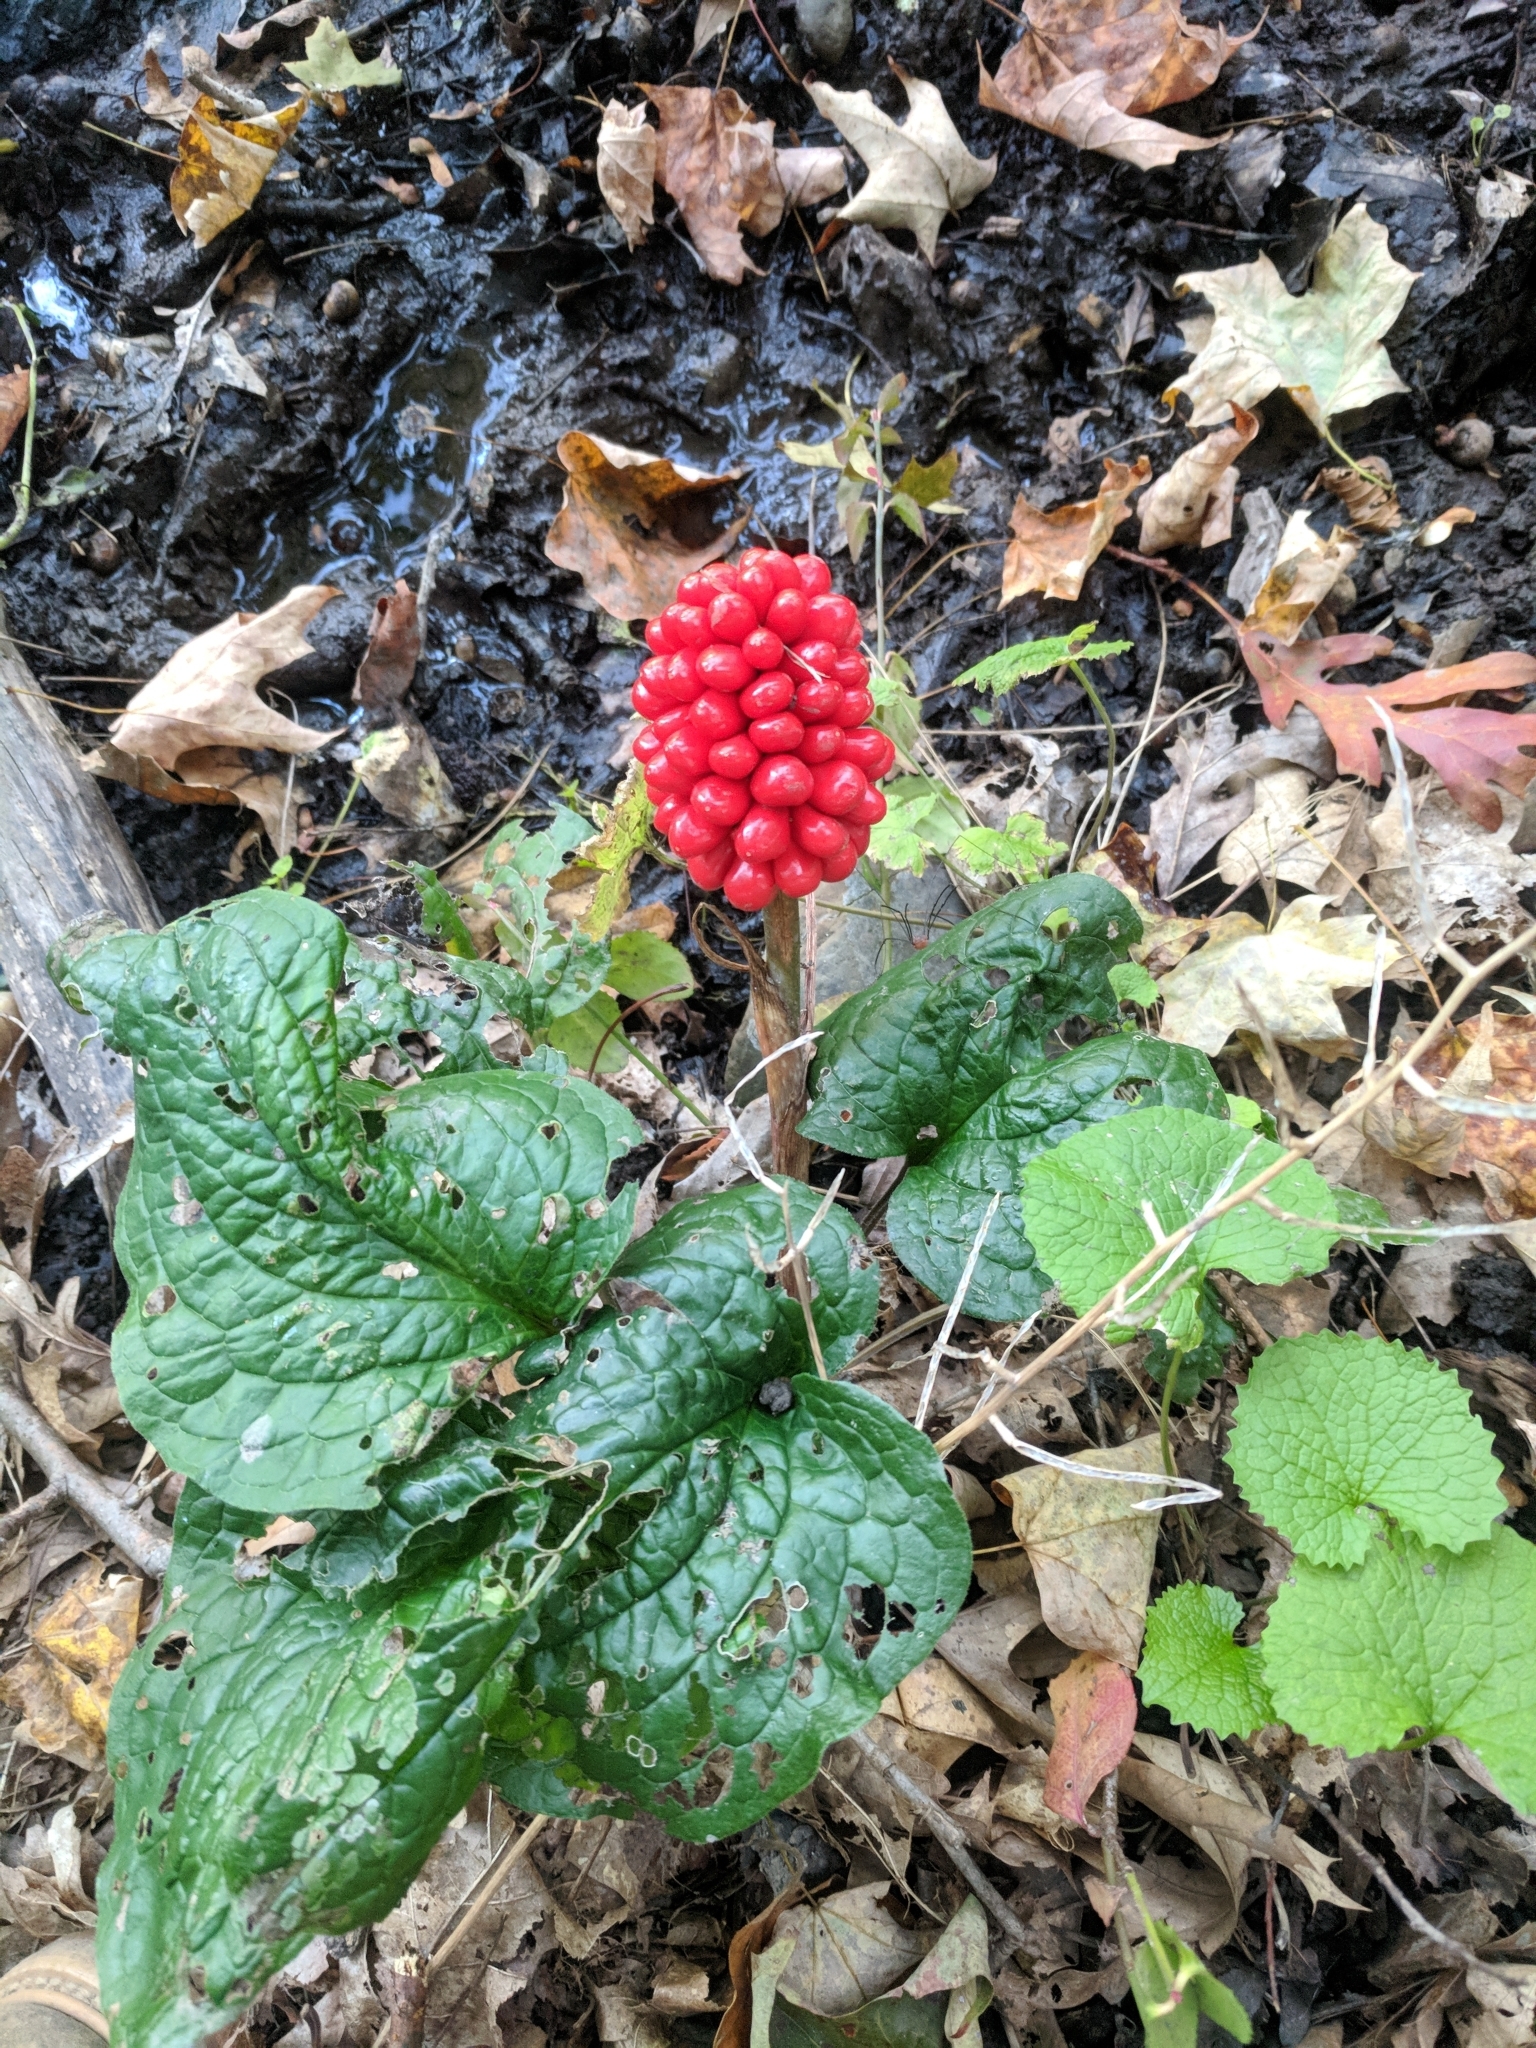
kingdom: Plantae
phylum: Tracheophyta
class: Liliopsida
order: Alismatales
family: Araceae
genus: Arisaema
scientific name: Arisaema triphyllum
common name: Jack-in-the-pulpit
